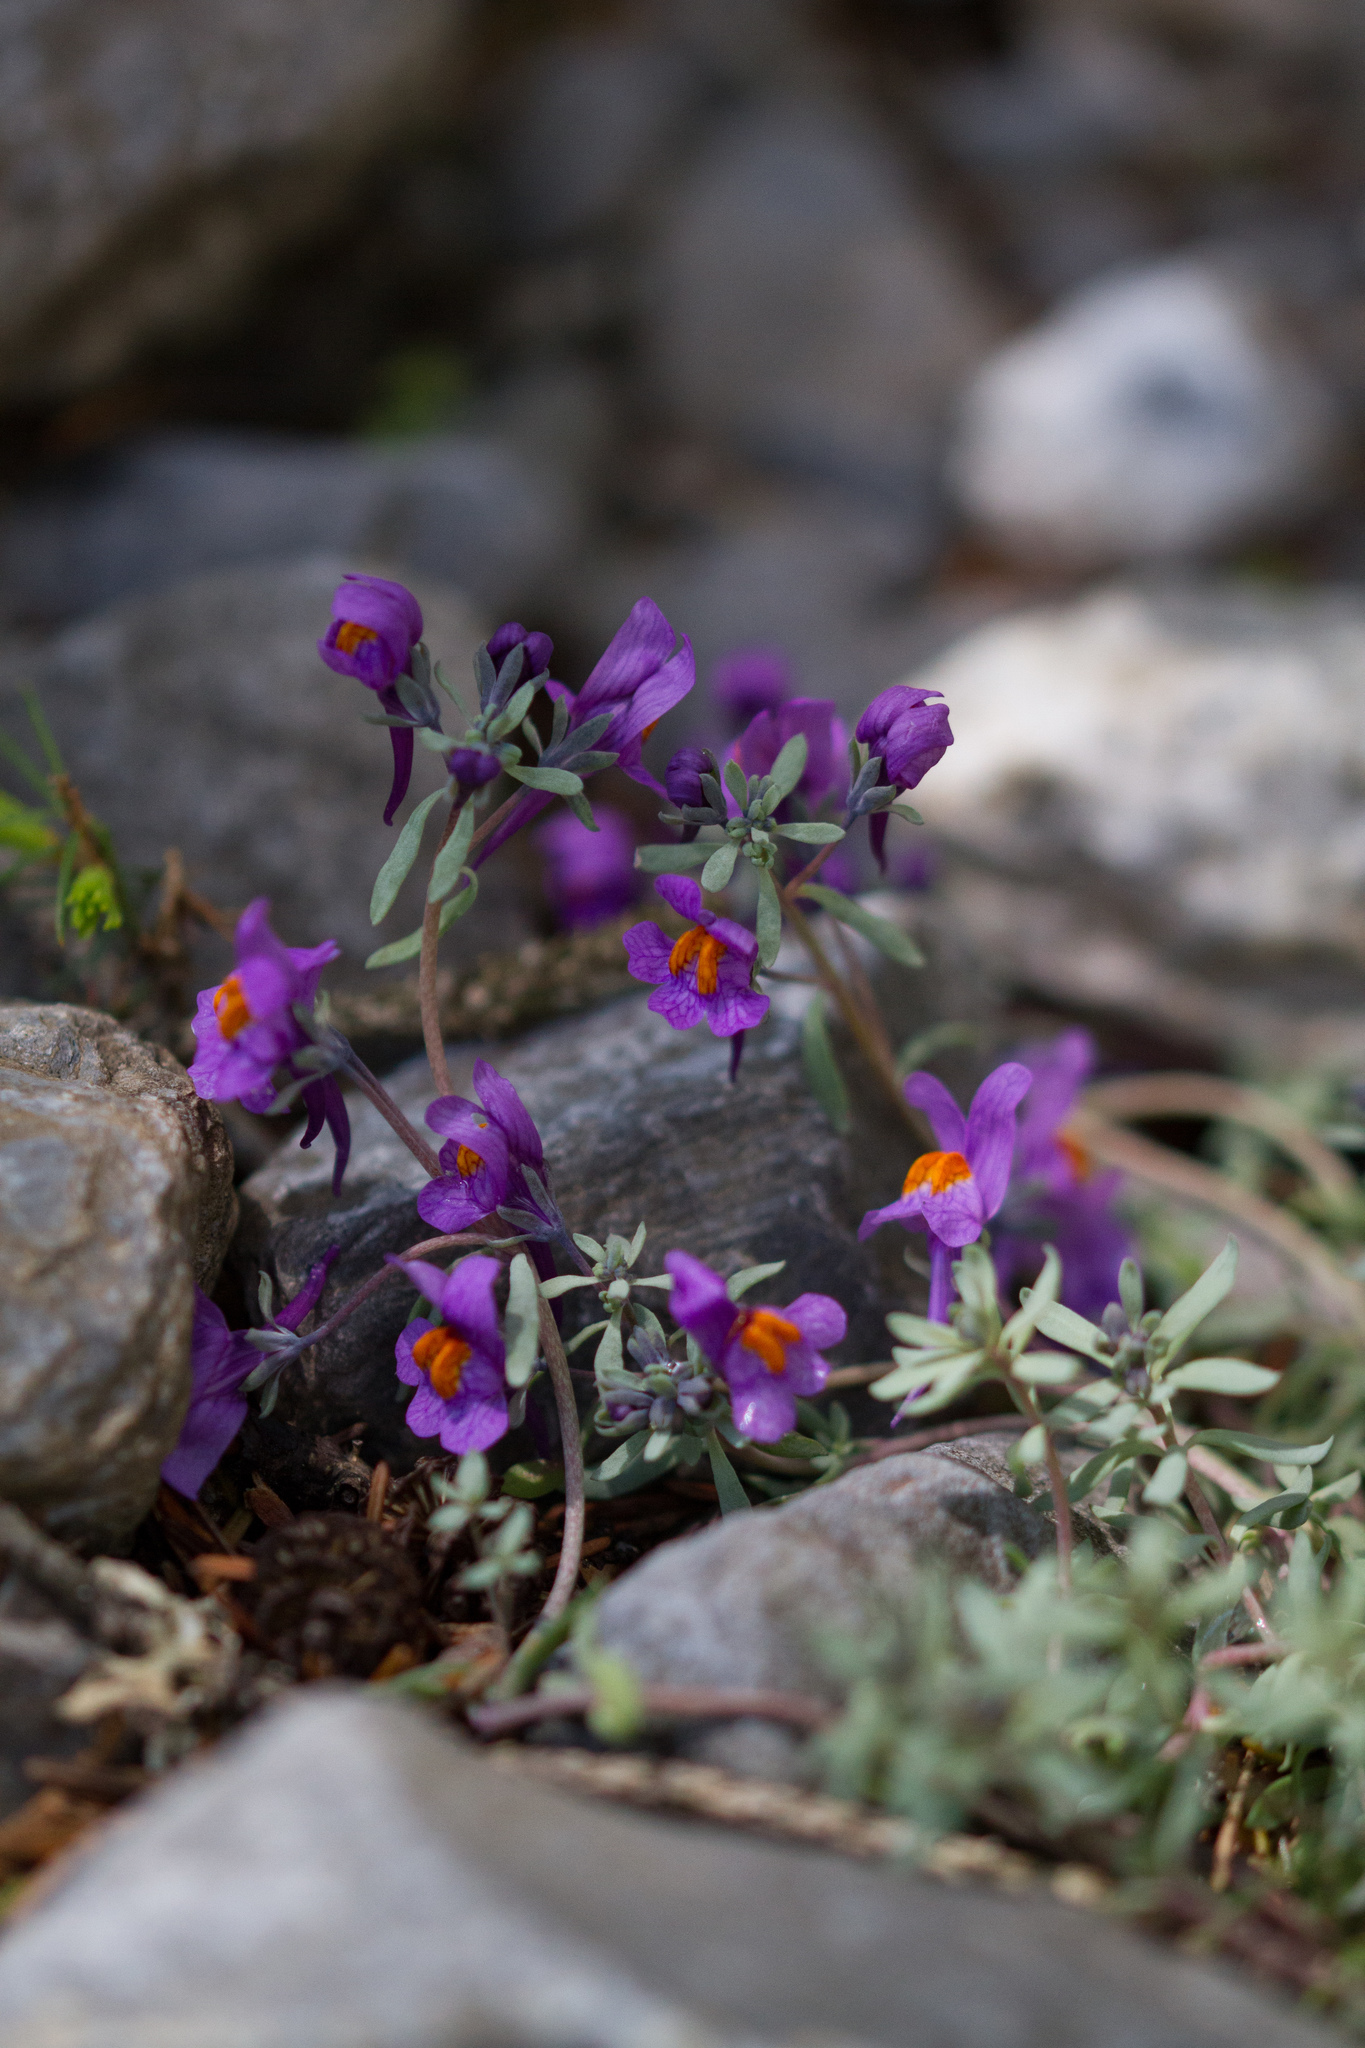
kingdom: Plantae
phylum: Tracheophyta
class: Magnoliopsida
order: Lamiales
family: Plantaginaceae
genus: Linaria
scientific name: Linaria alpina
